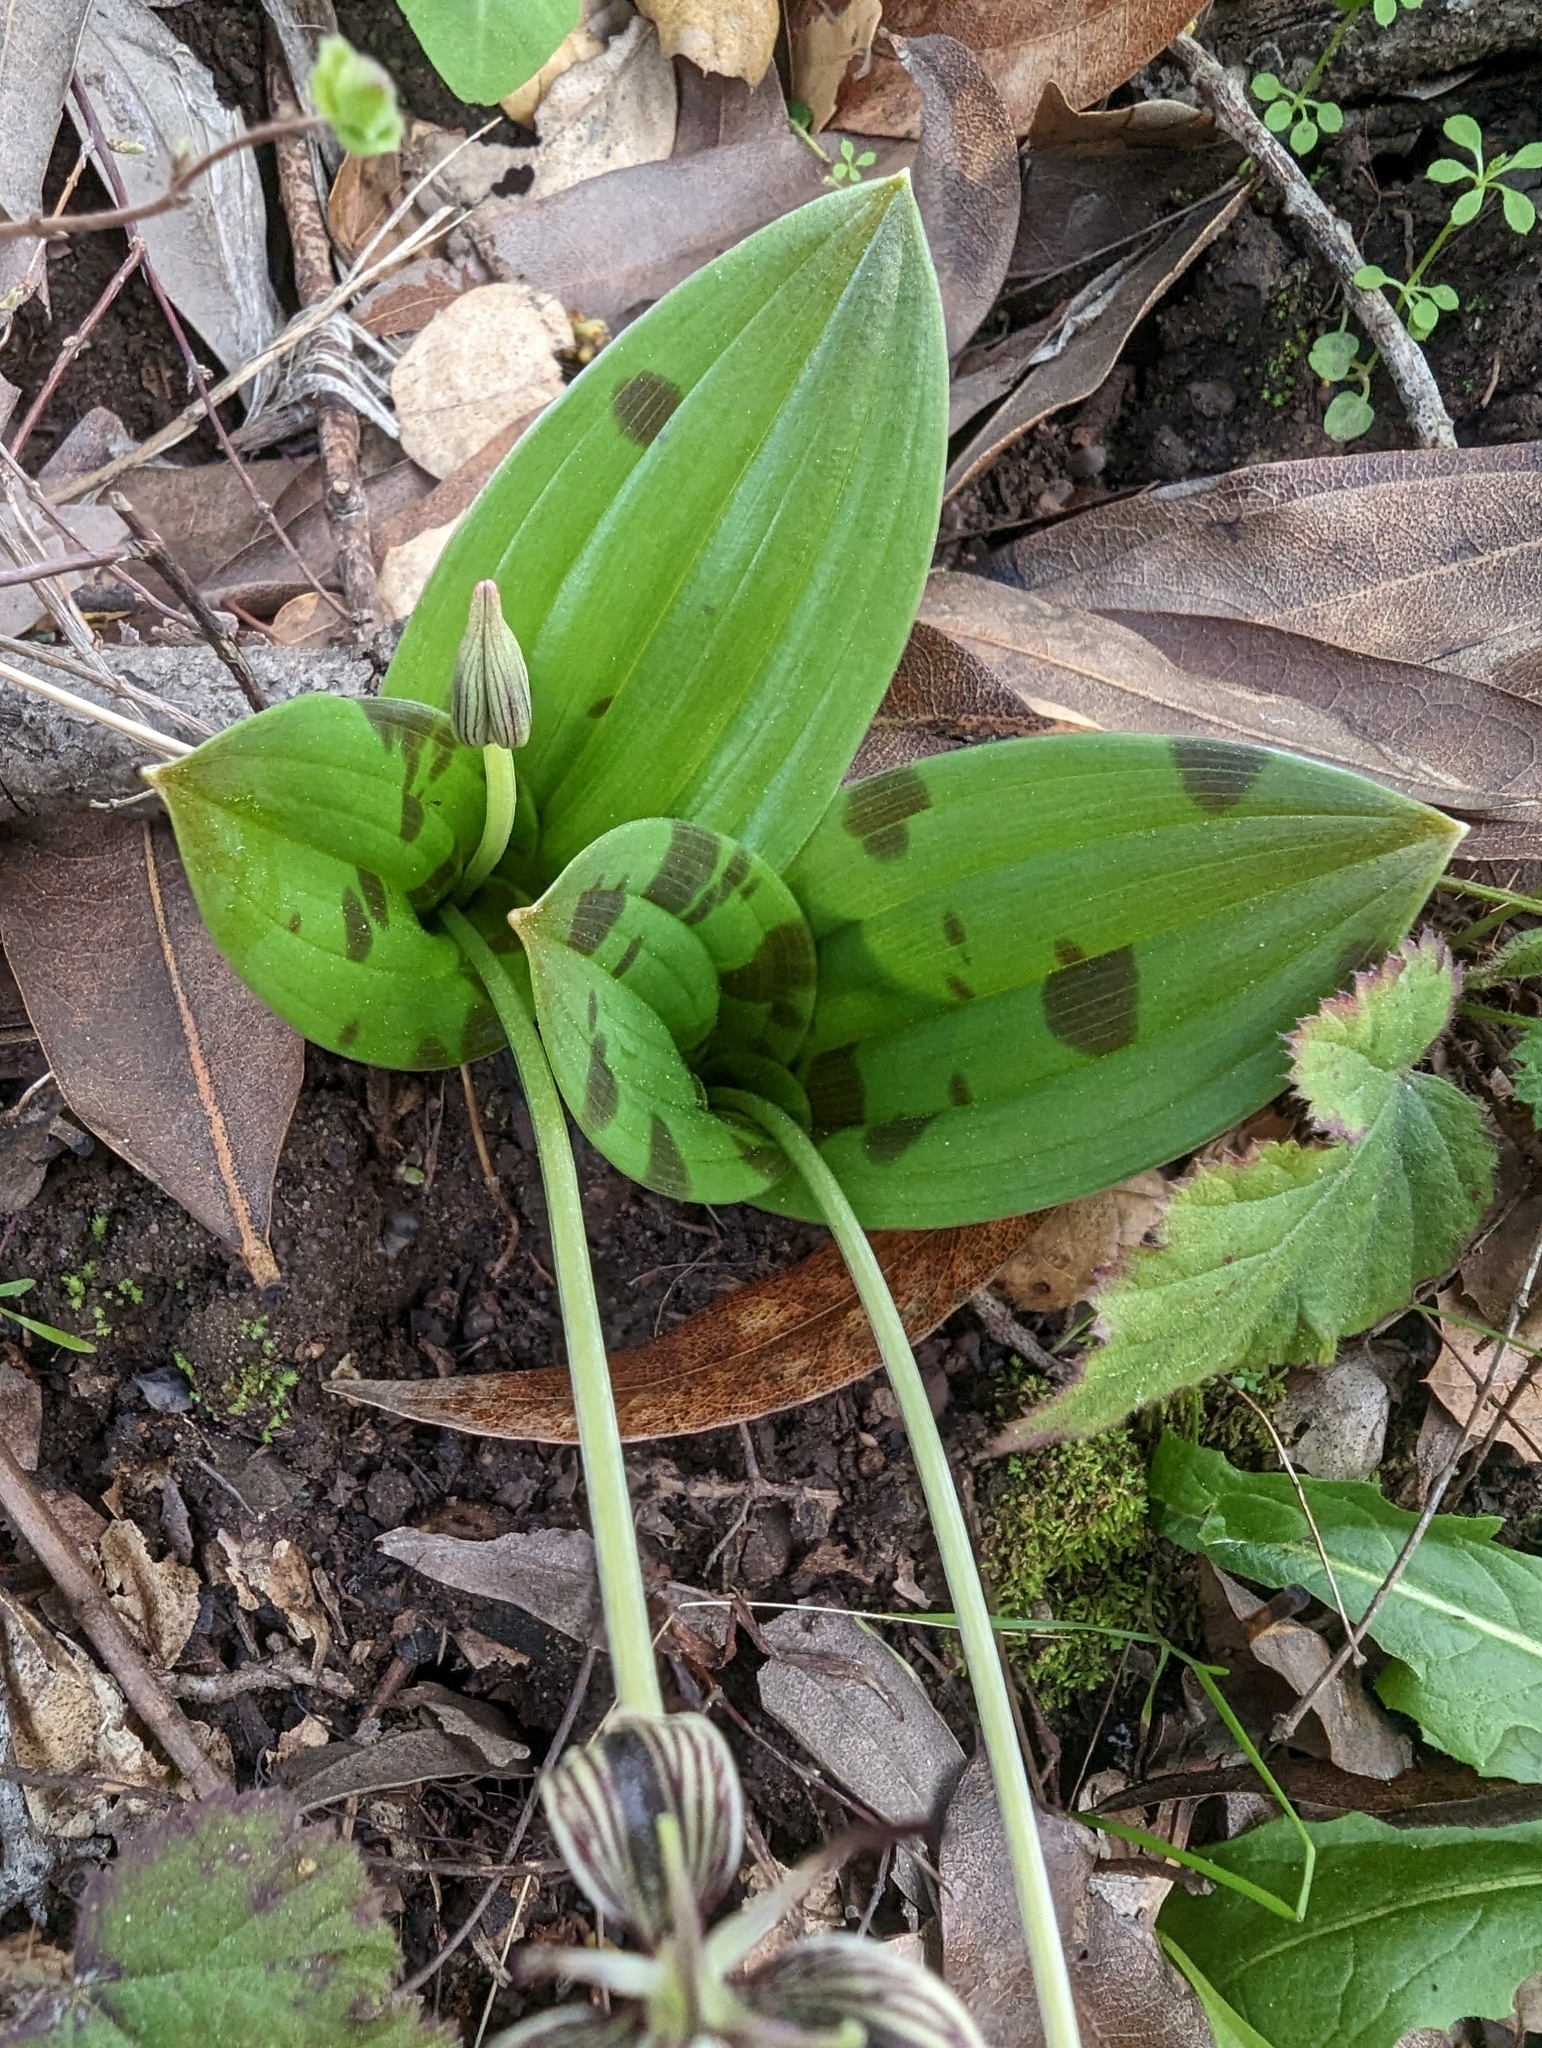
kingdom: Plantae
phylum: Tracheophyta
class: Liliopsida
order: Liliales
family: Liliaceae
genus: Scoliopus
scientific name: Scoliopus bigelovii
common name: Foetid adder's-tongue
